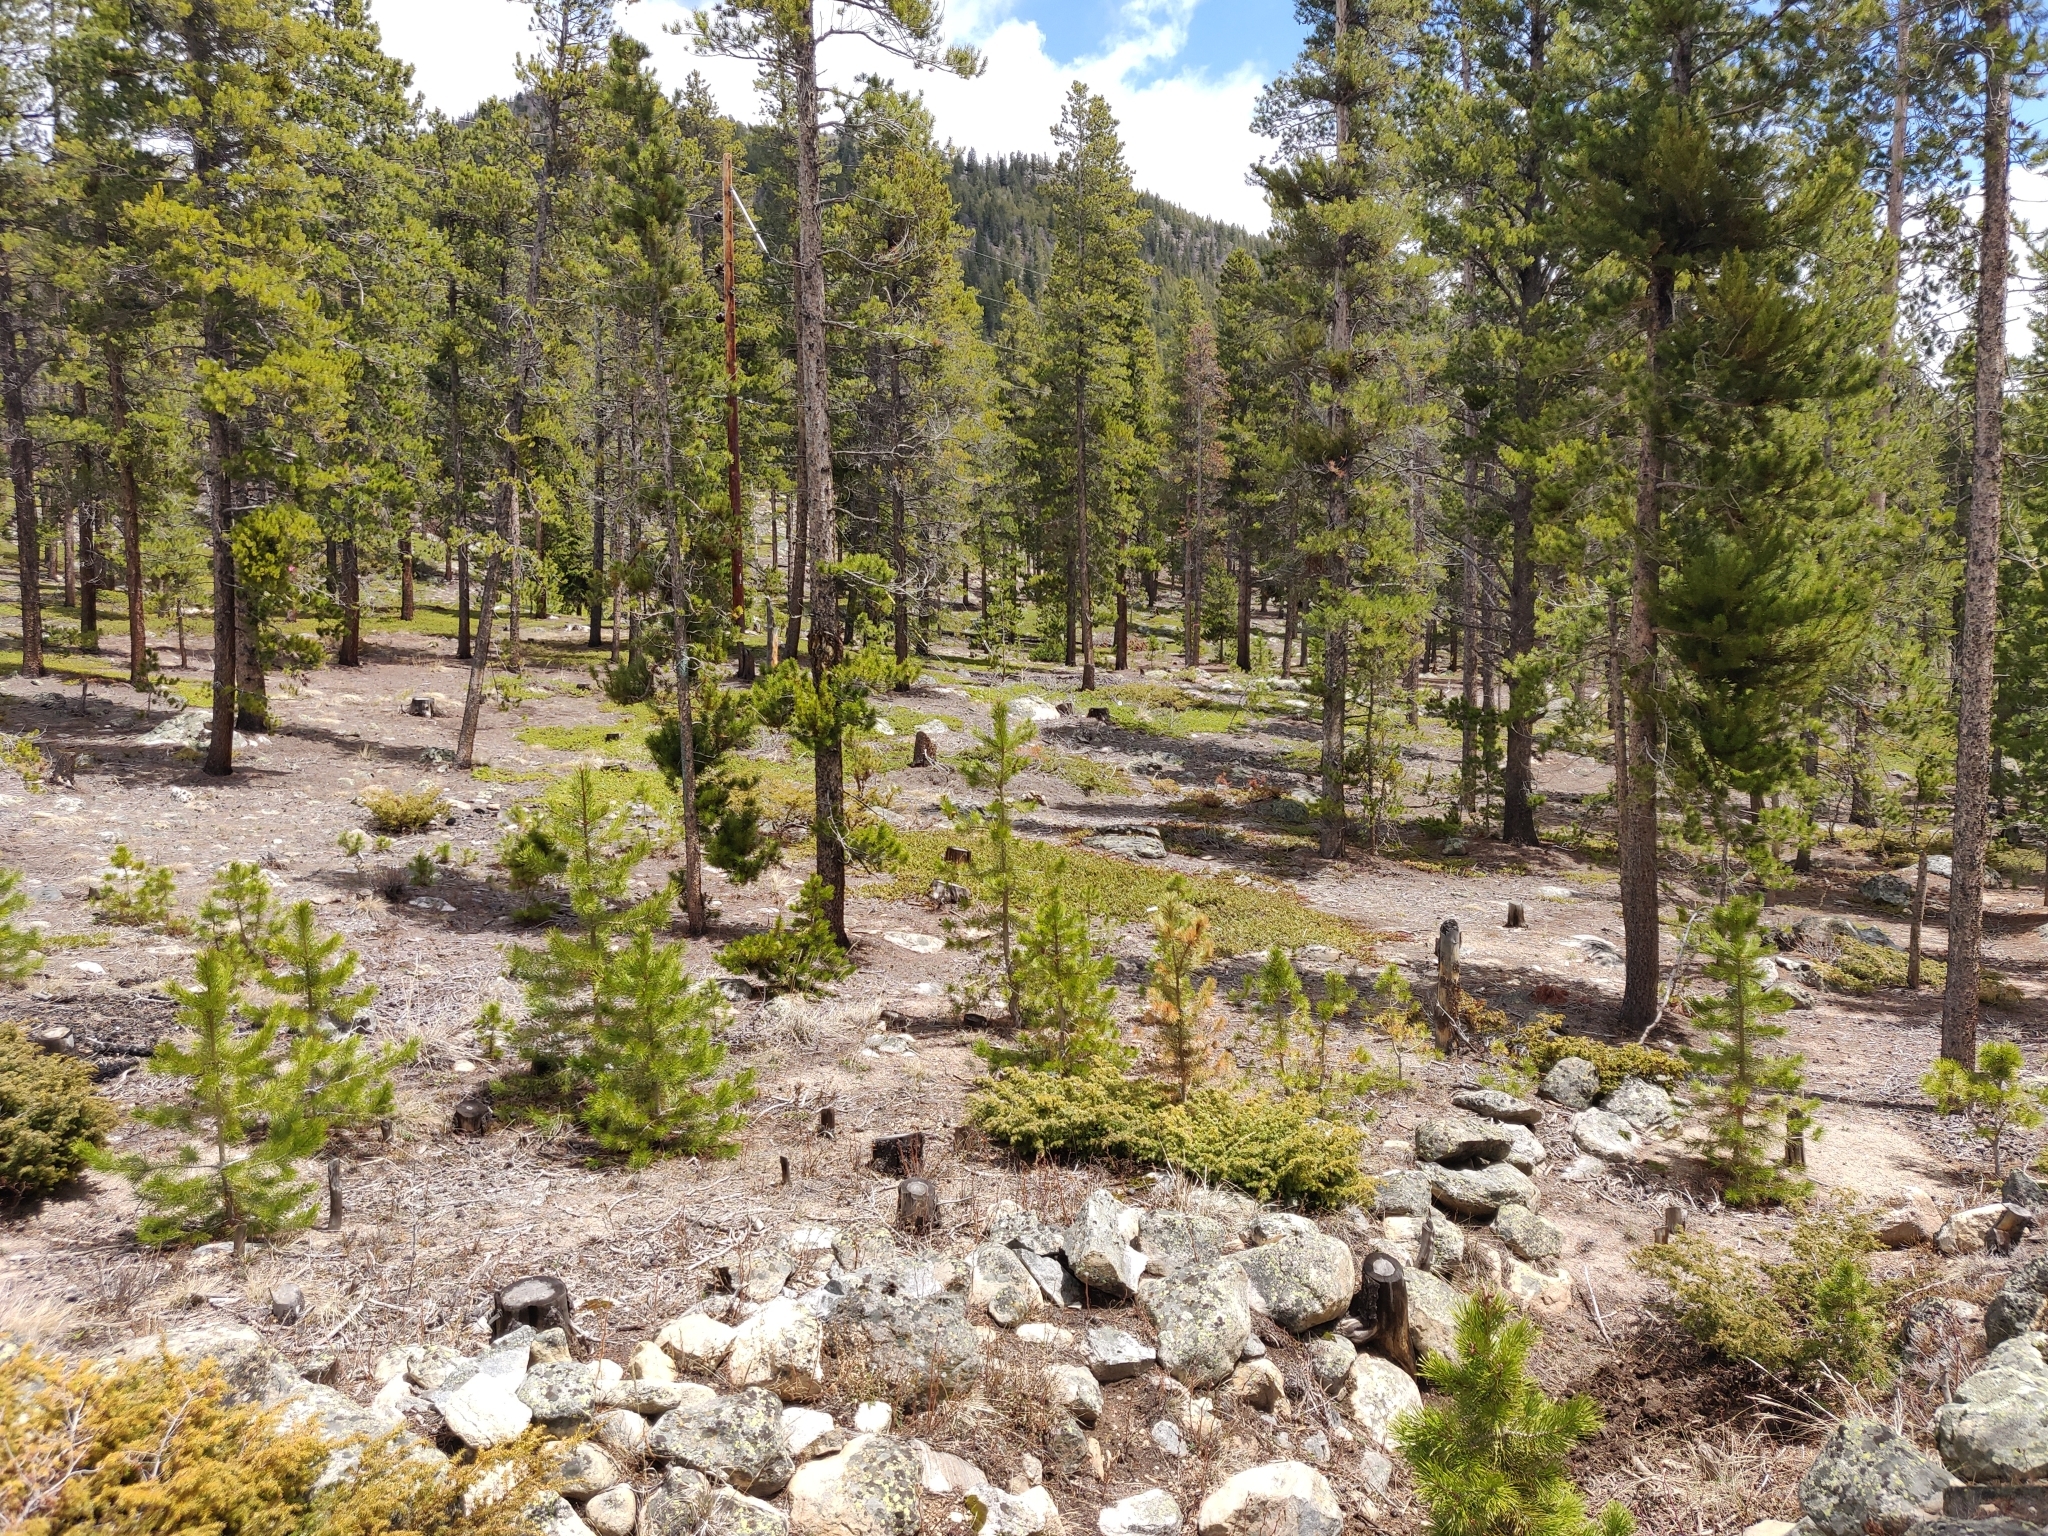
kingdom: Plantae
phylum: Tracheophyta
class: Magnoliopsida
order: Ericales
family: Ericaceae
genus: Arctostaphylos
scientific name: Arctostaphylos uva-ursi
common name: Bearberry
